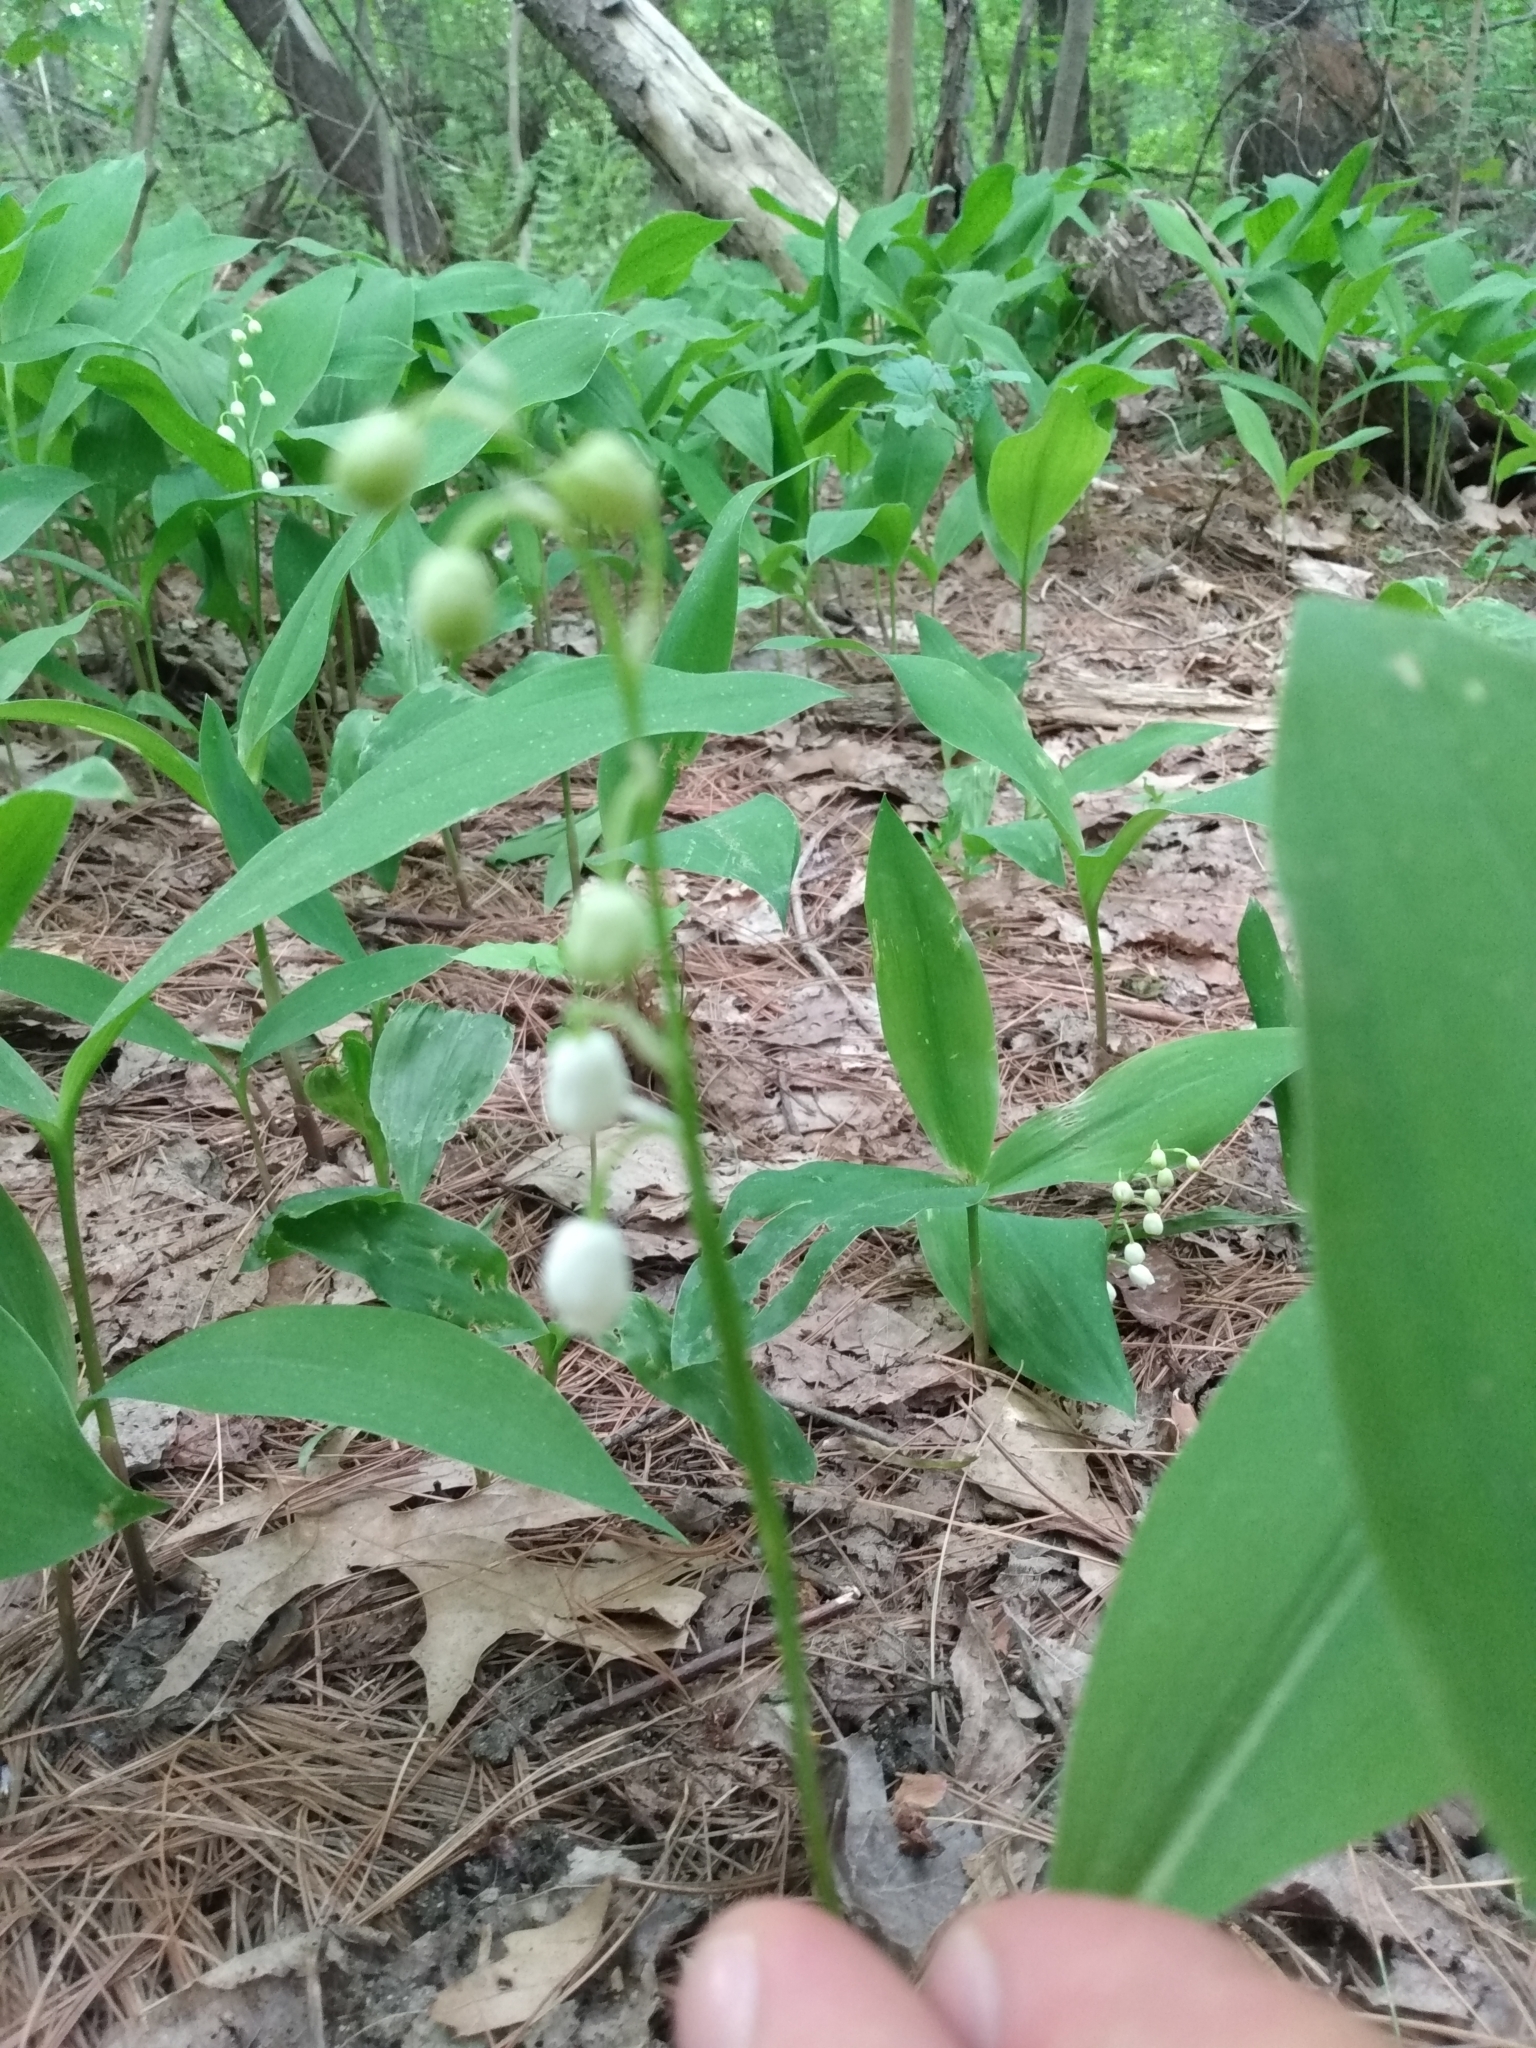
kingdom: Plantae
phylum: Tracheophyta
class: Liliopsida
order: Asparagales
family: Asparagaceae
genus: Convallaria
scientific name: Convallaria majalis
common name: Lily-of-the-valley
